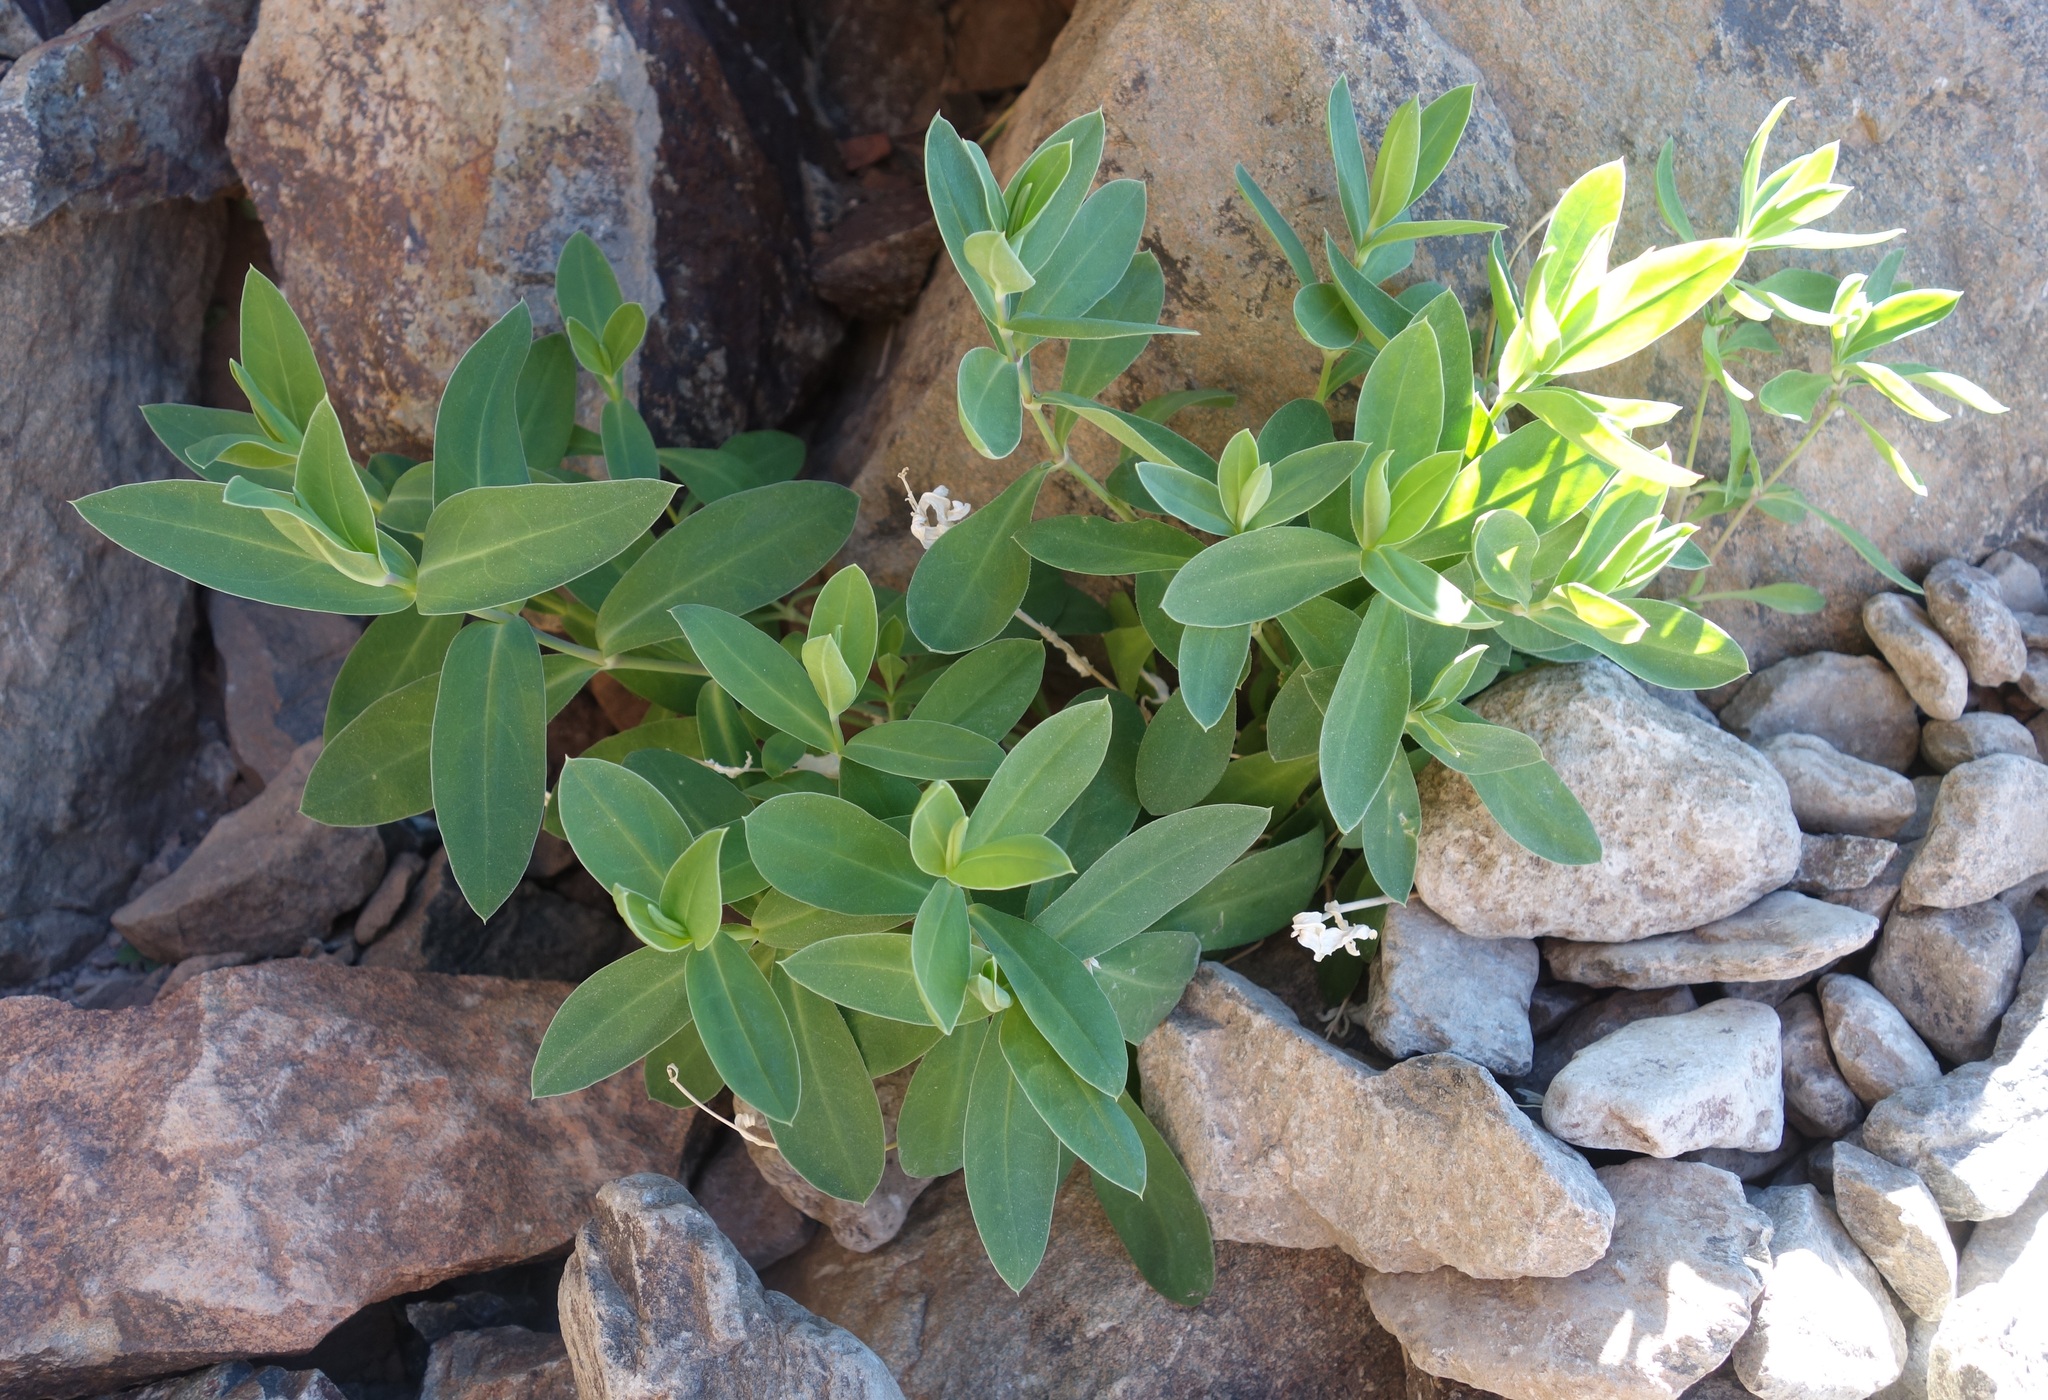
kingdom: Plantae
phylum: Tracheophyta
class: Magnoliopsida
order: Caryophyllales
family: Caryophyllaceae
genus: Silene
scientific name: Silene vulgaris
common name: Bladder campion
